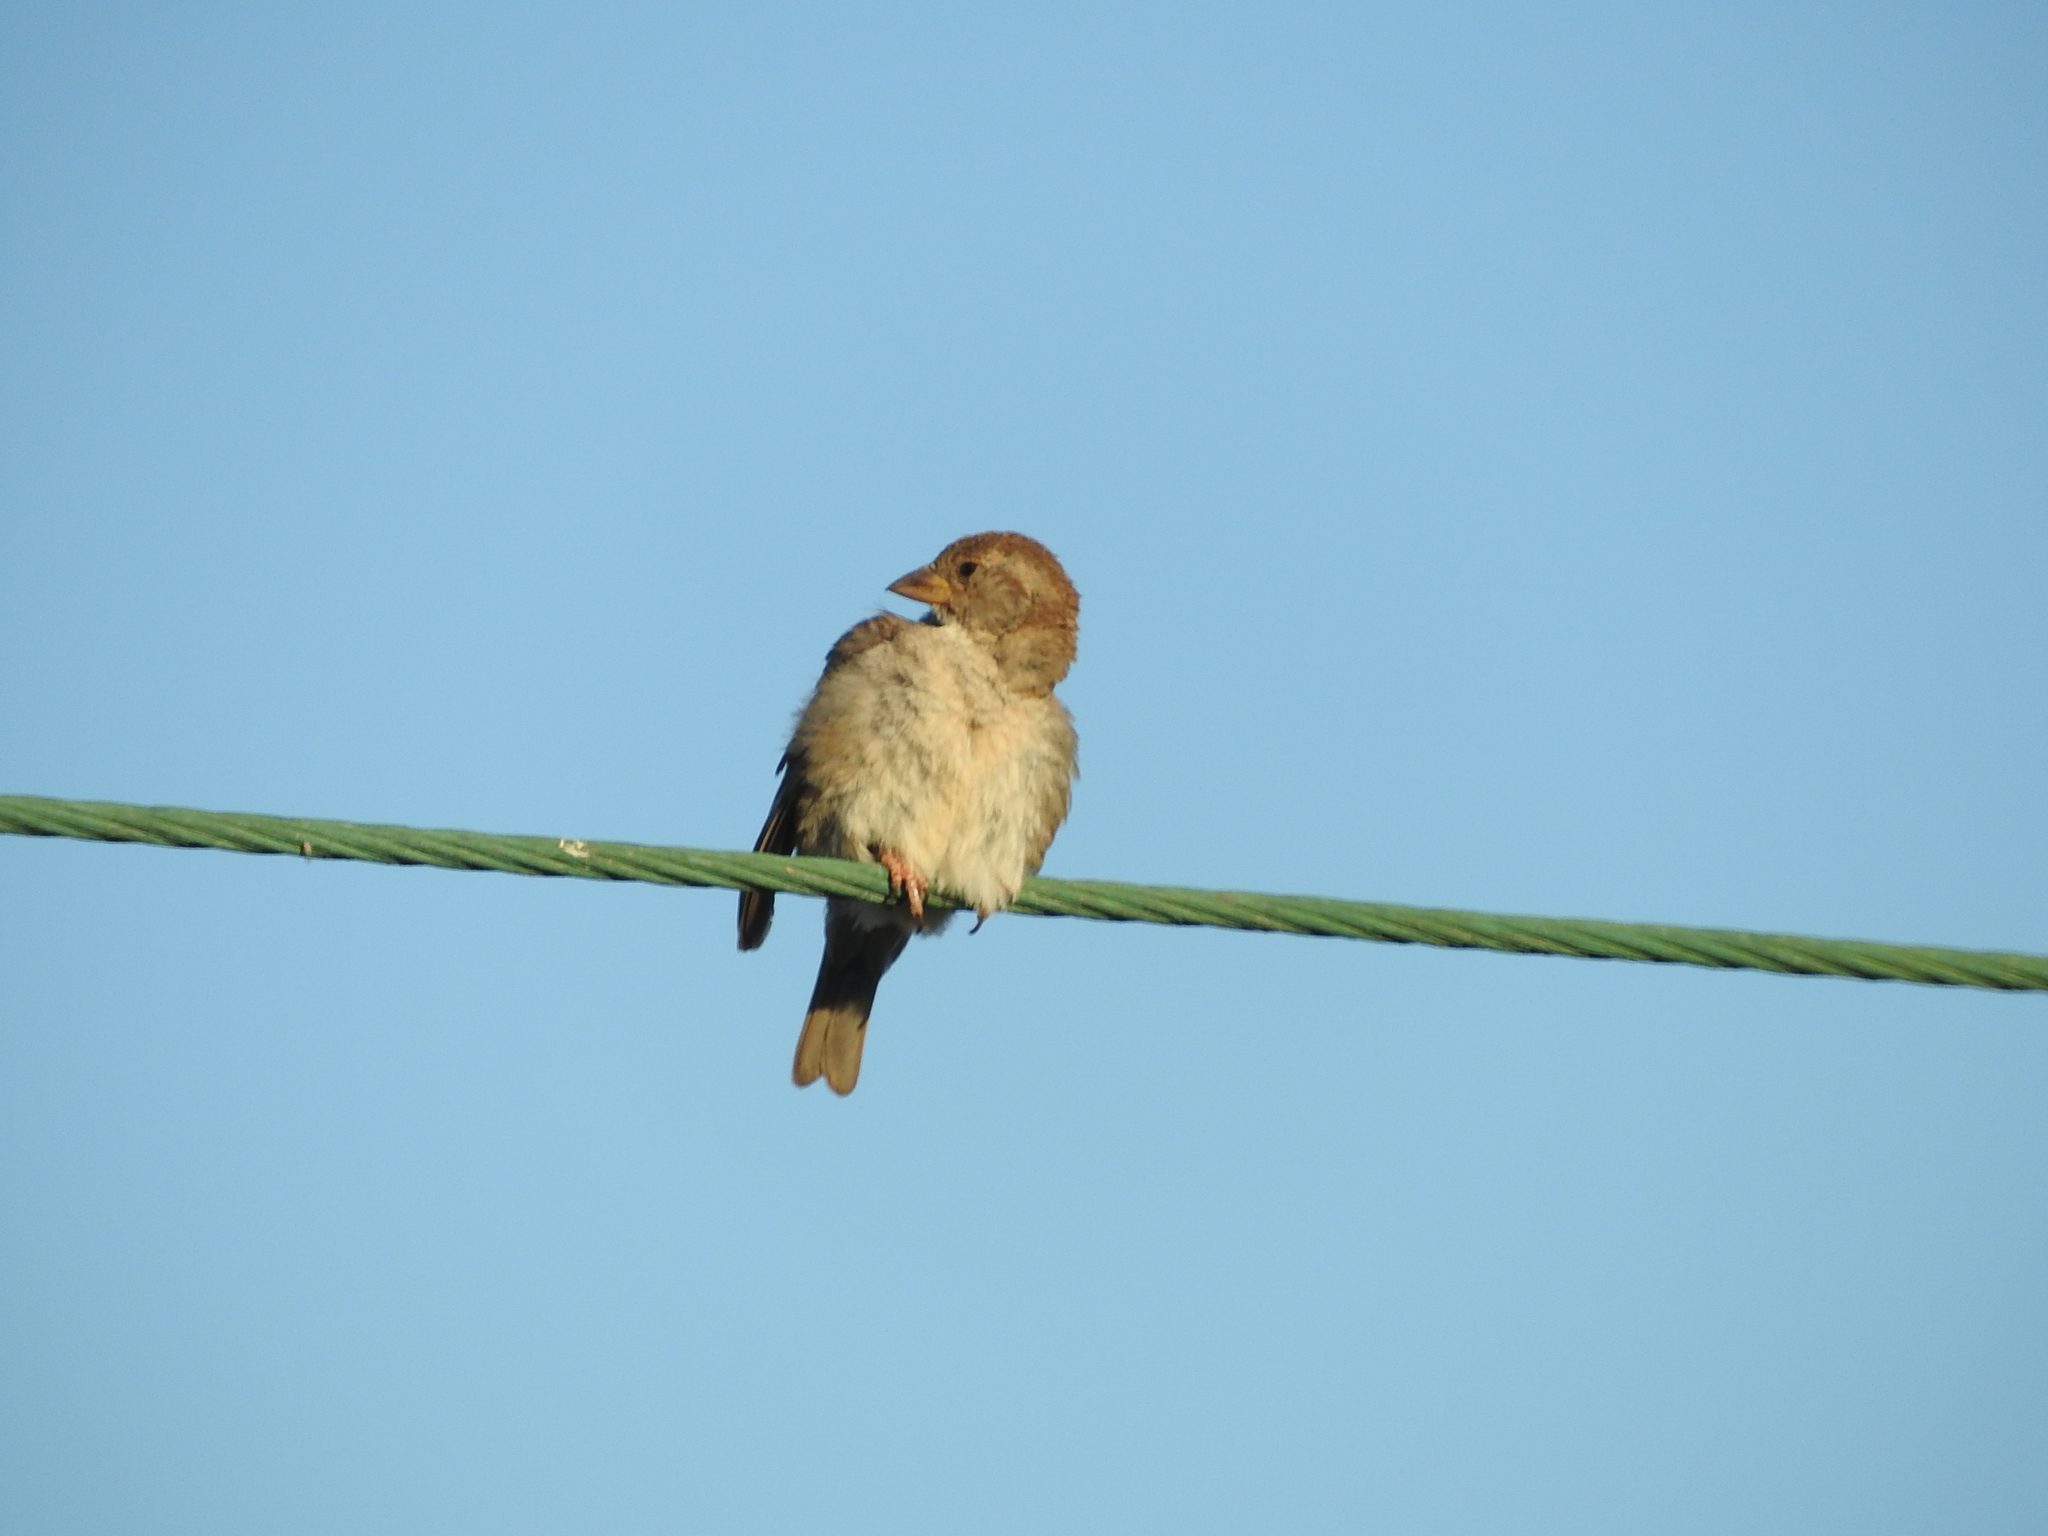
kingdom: Animalia
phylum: Chordata
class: Aves
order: Passeriformes
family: Passeridae
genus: Passer
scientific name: Passer domesticus
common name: House sparrow
